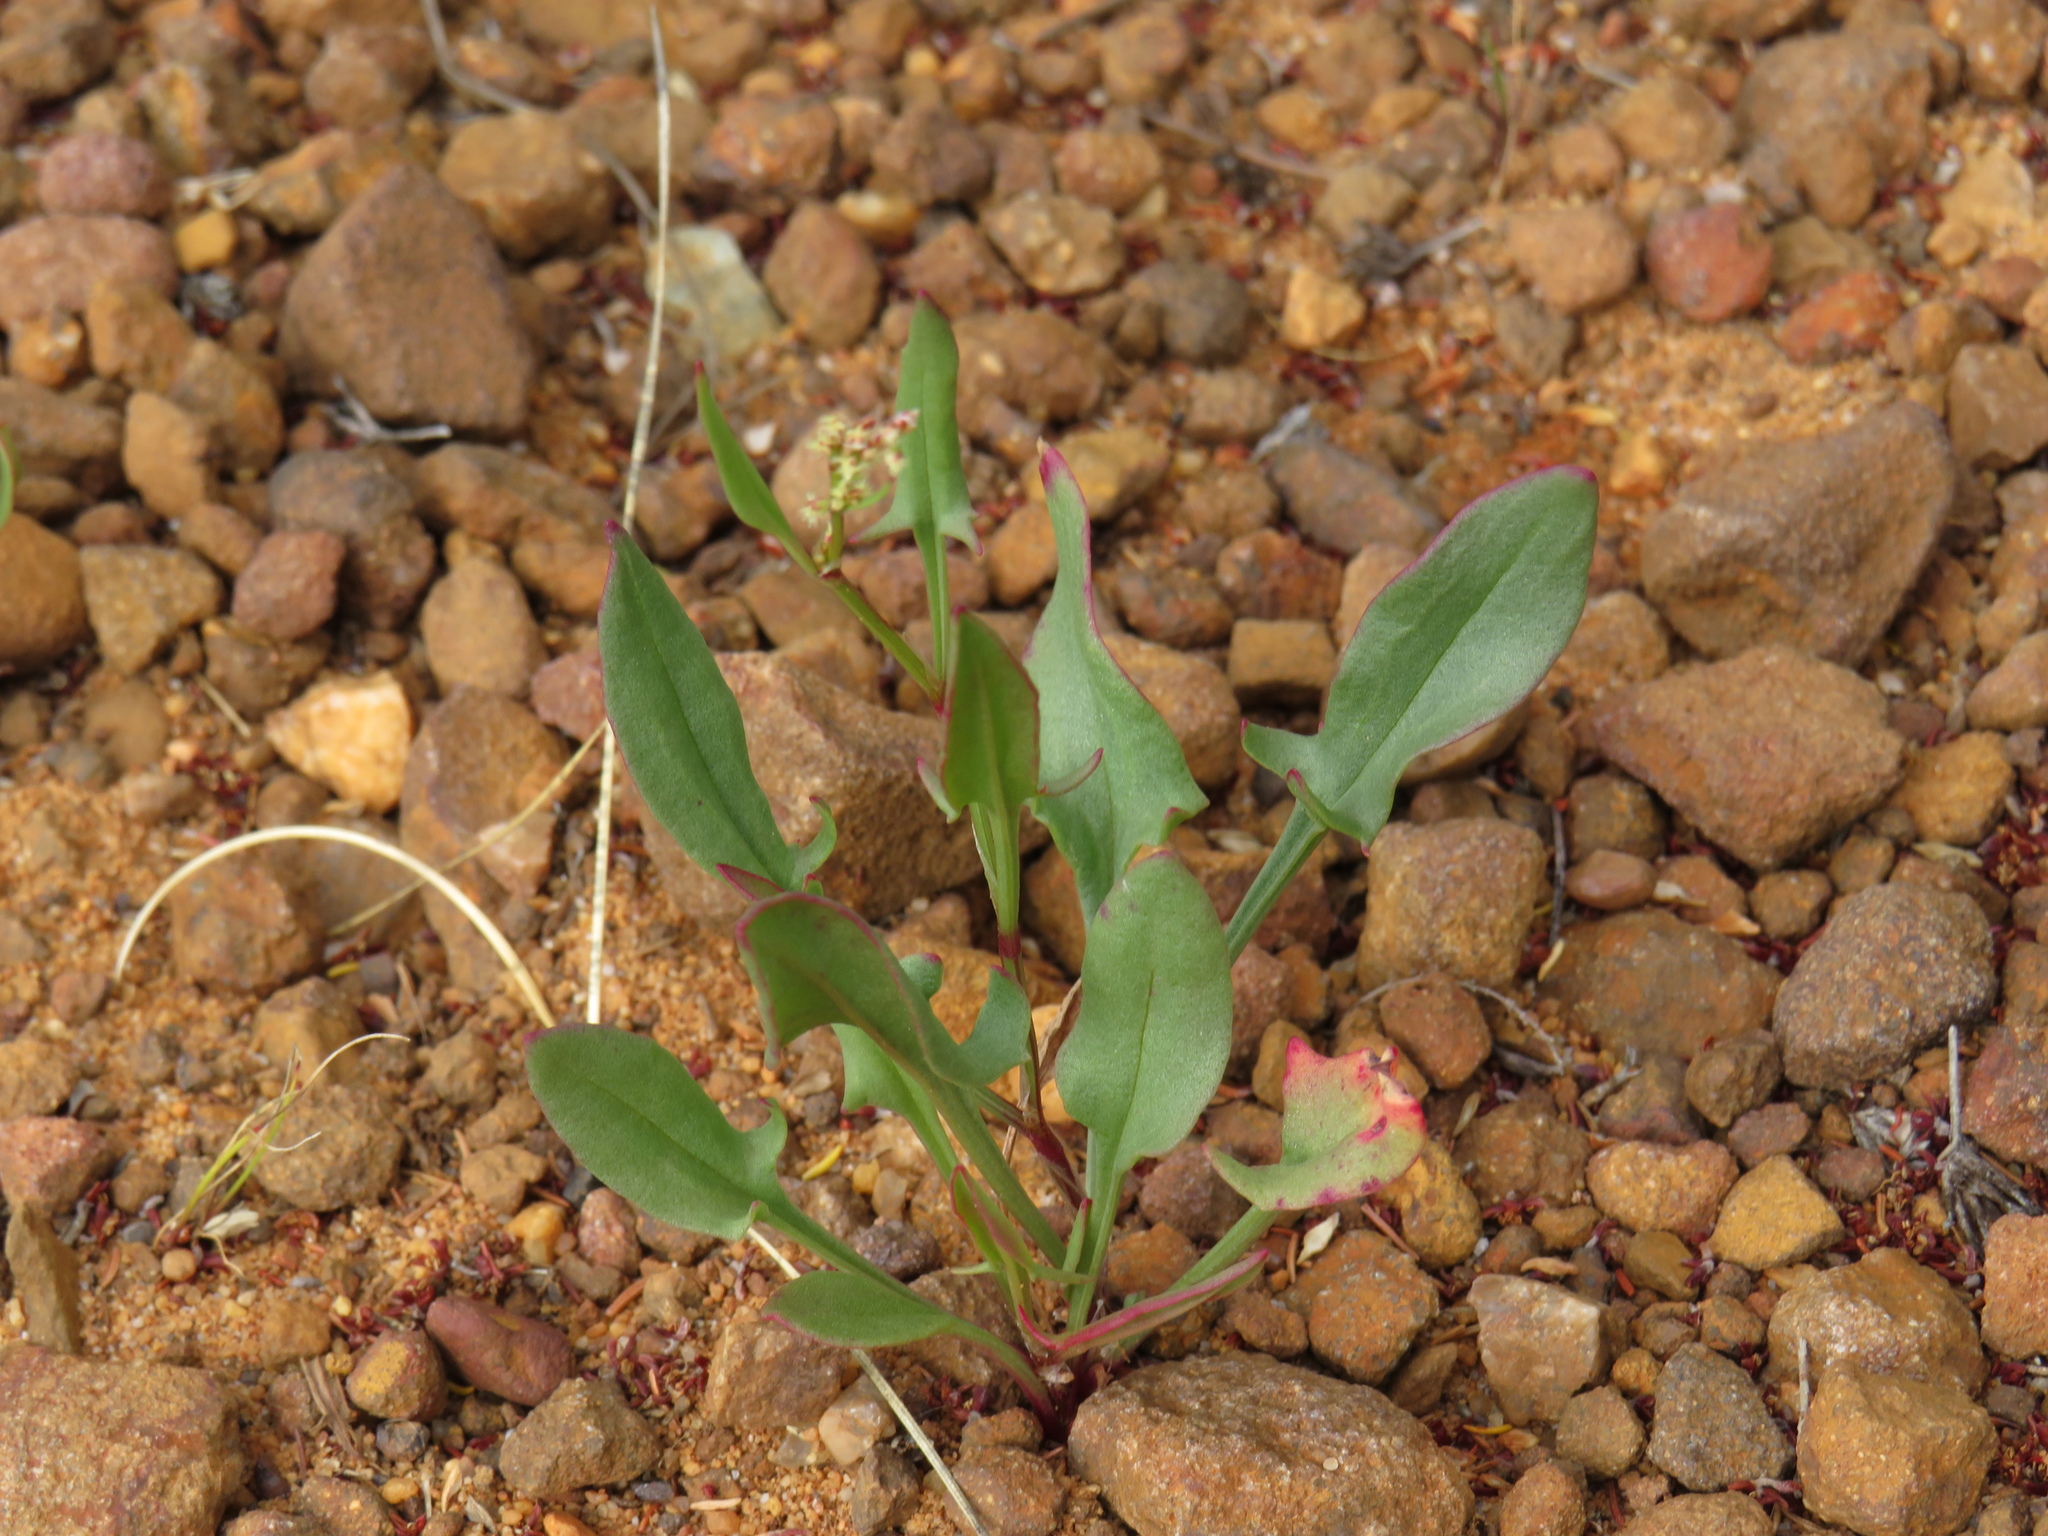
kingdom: Plantae
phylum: Tracheophyta
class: Magnoliopsida
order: Caryophyllales
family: Polygonaceae
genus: Rumex
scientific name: Rumex acetosella
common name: Common sheep sorrel
